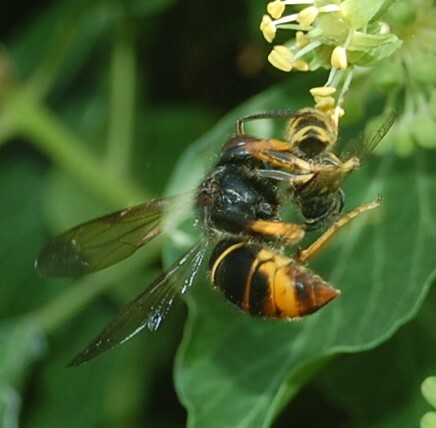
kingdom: Animalia
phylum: Arthropoda
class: Insecta
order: Hymenoptera
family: Vespidae
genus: Vespa
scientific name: Vespa velutina
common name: Asian hornet
